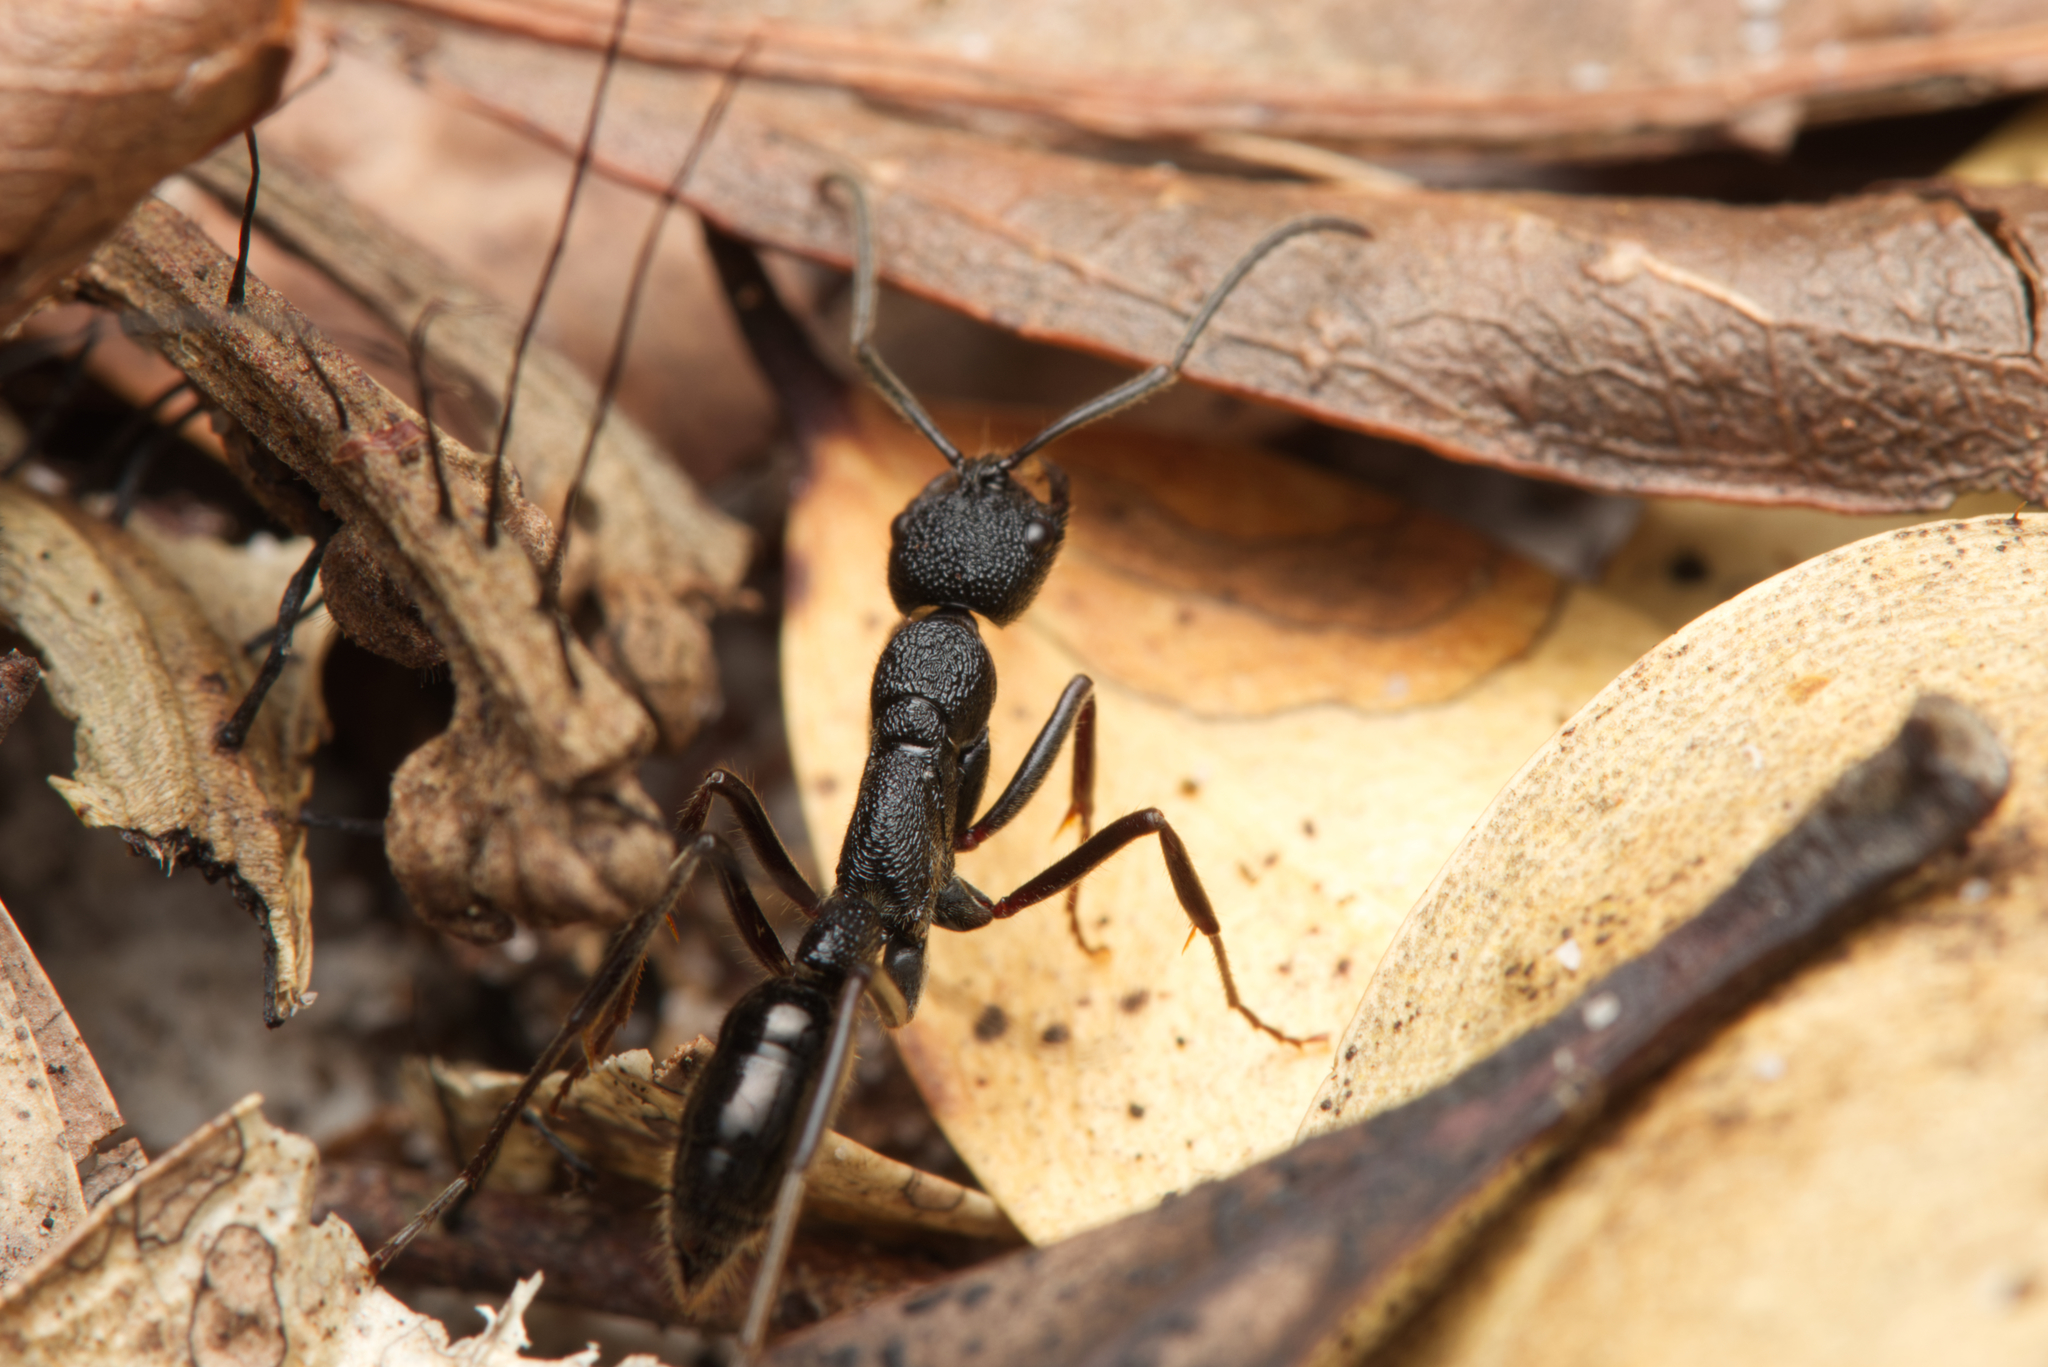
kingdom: Animalia
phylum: Arthropoda
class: Insecta
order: Hymenoptera
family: Formicidae
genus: Leptogenys
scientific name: Leptogenys sjostedti
